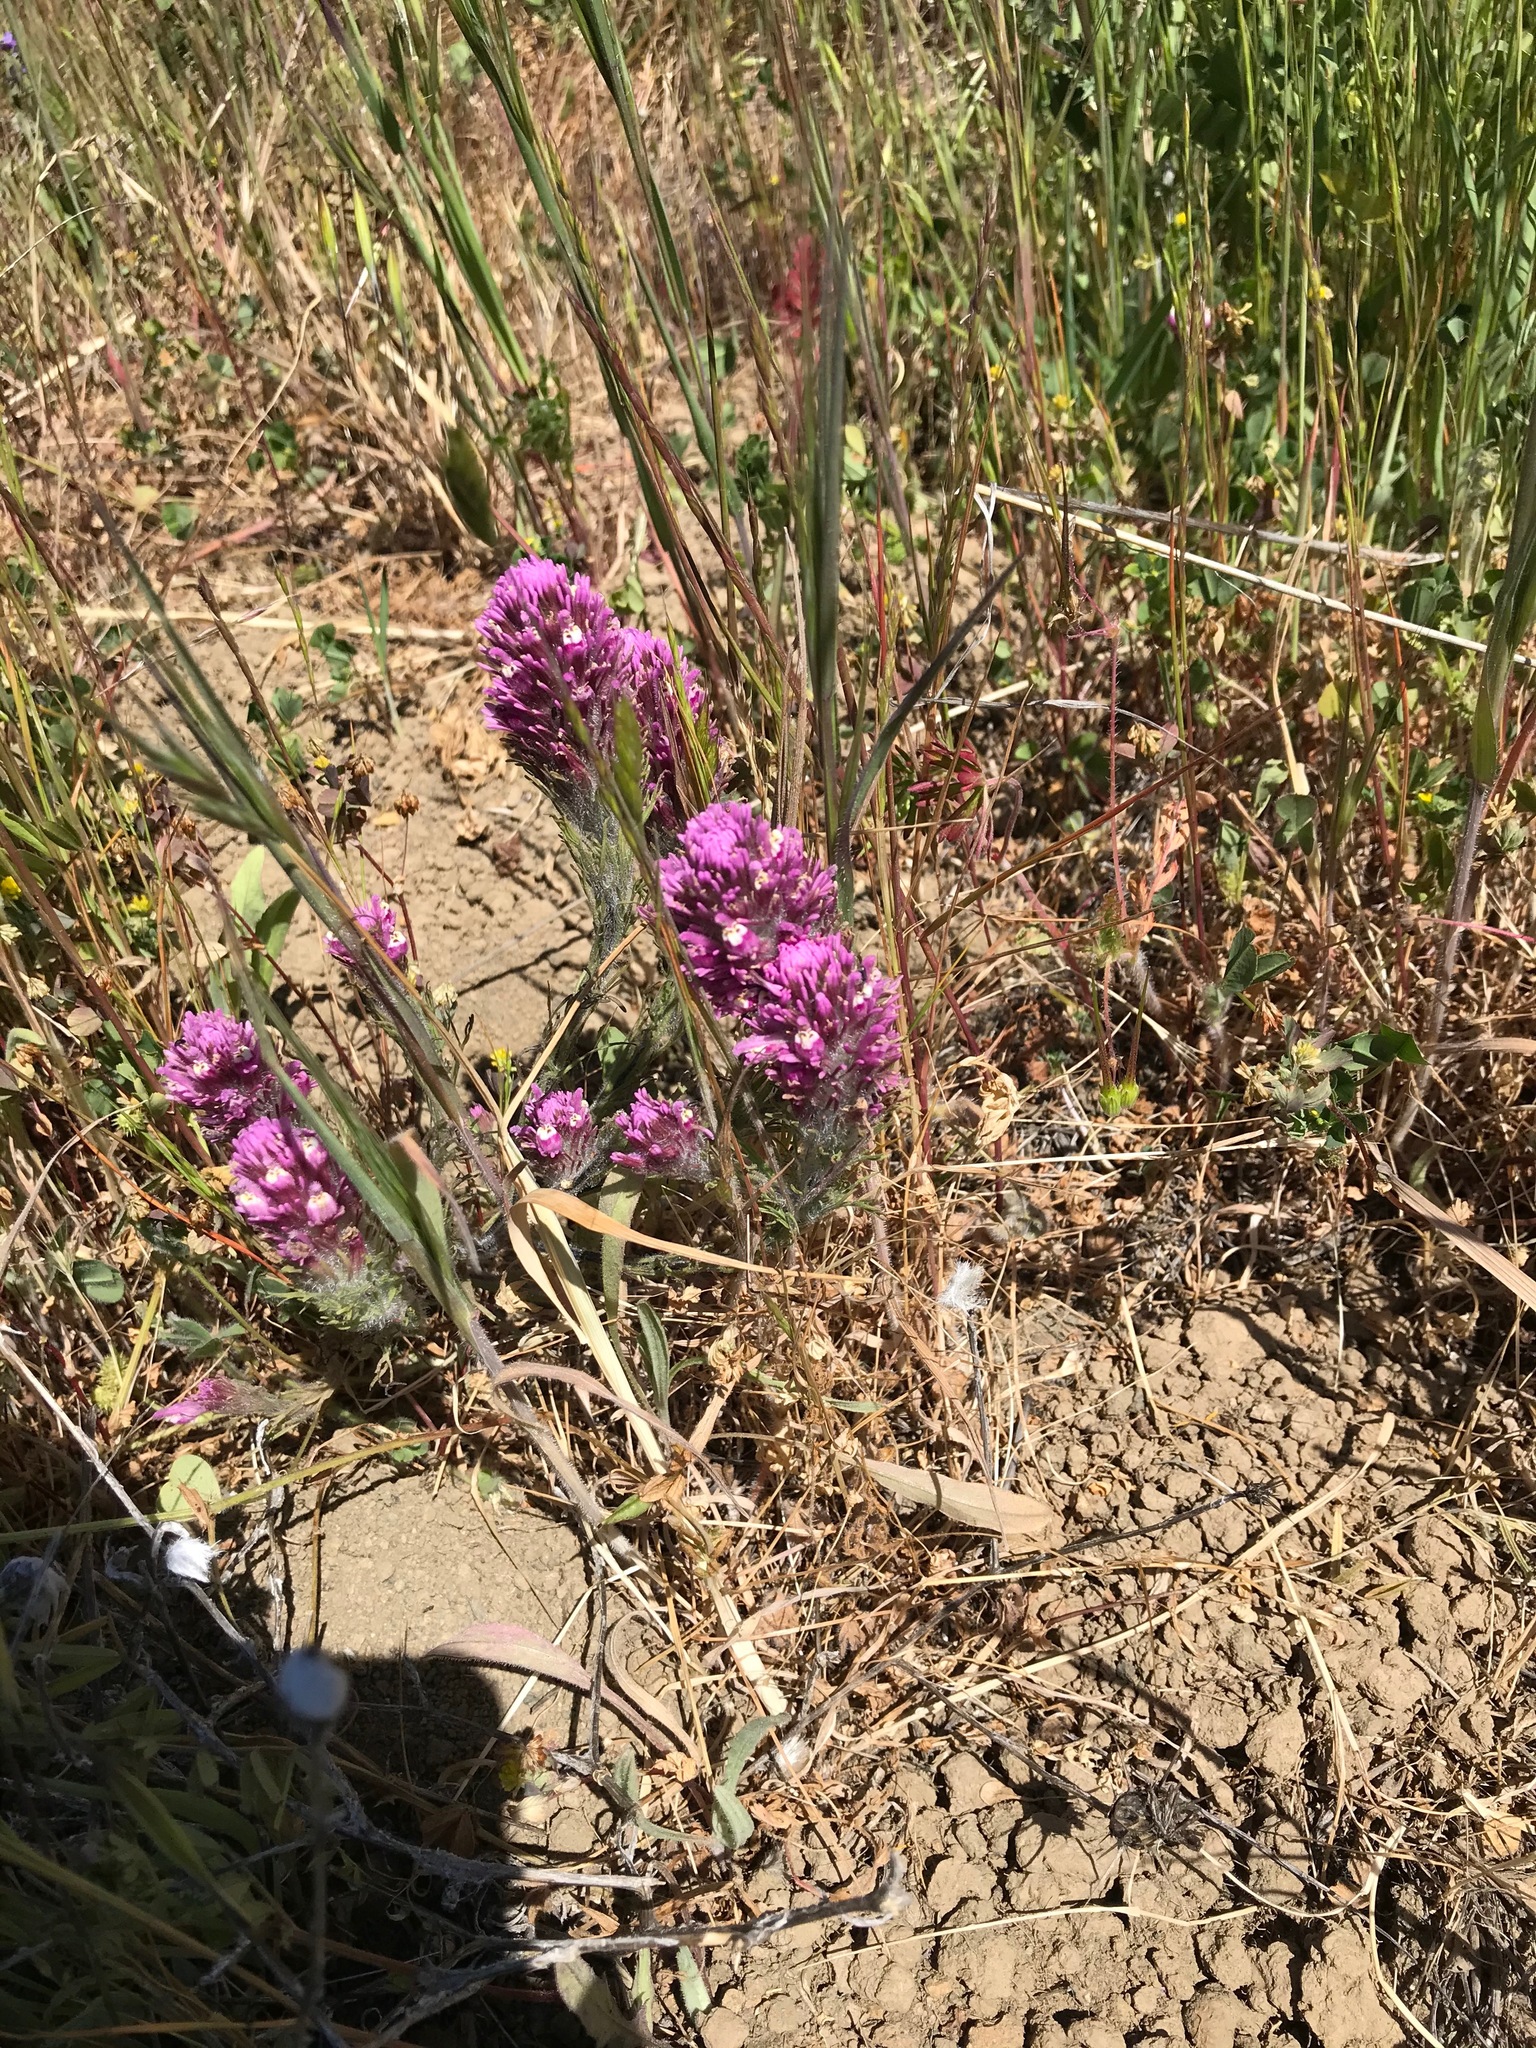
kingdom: Plantae
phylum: Tracheophyta
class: Magnoliopsida
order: Lamiales
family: Orobanchaceae
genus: Castilleja
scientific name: Castilleja exserta
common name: Purple owl-clover
